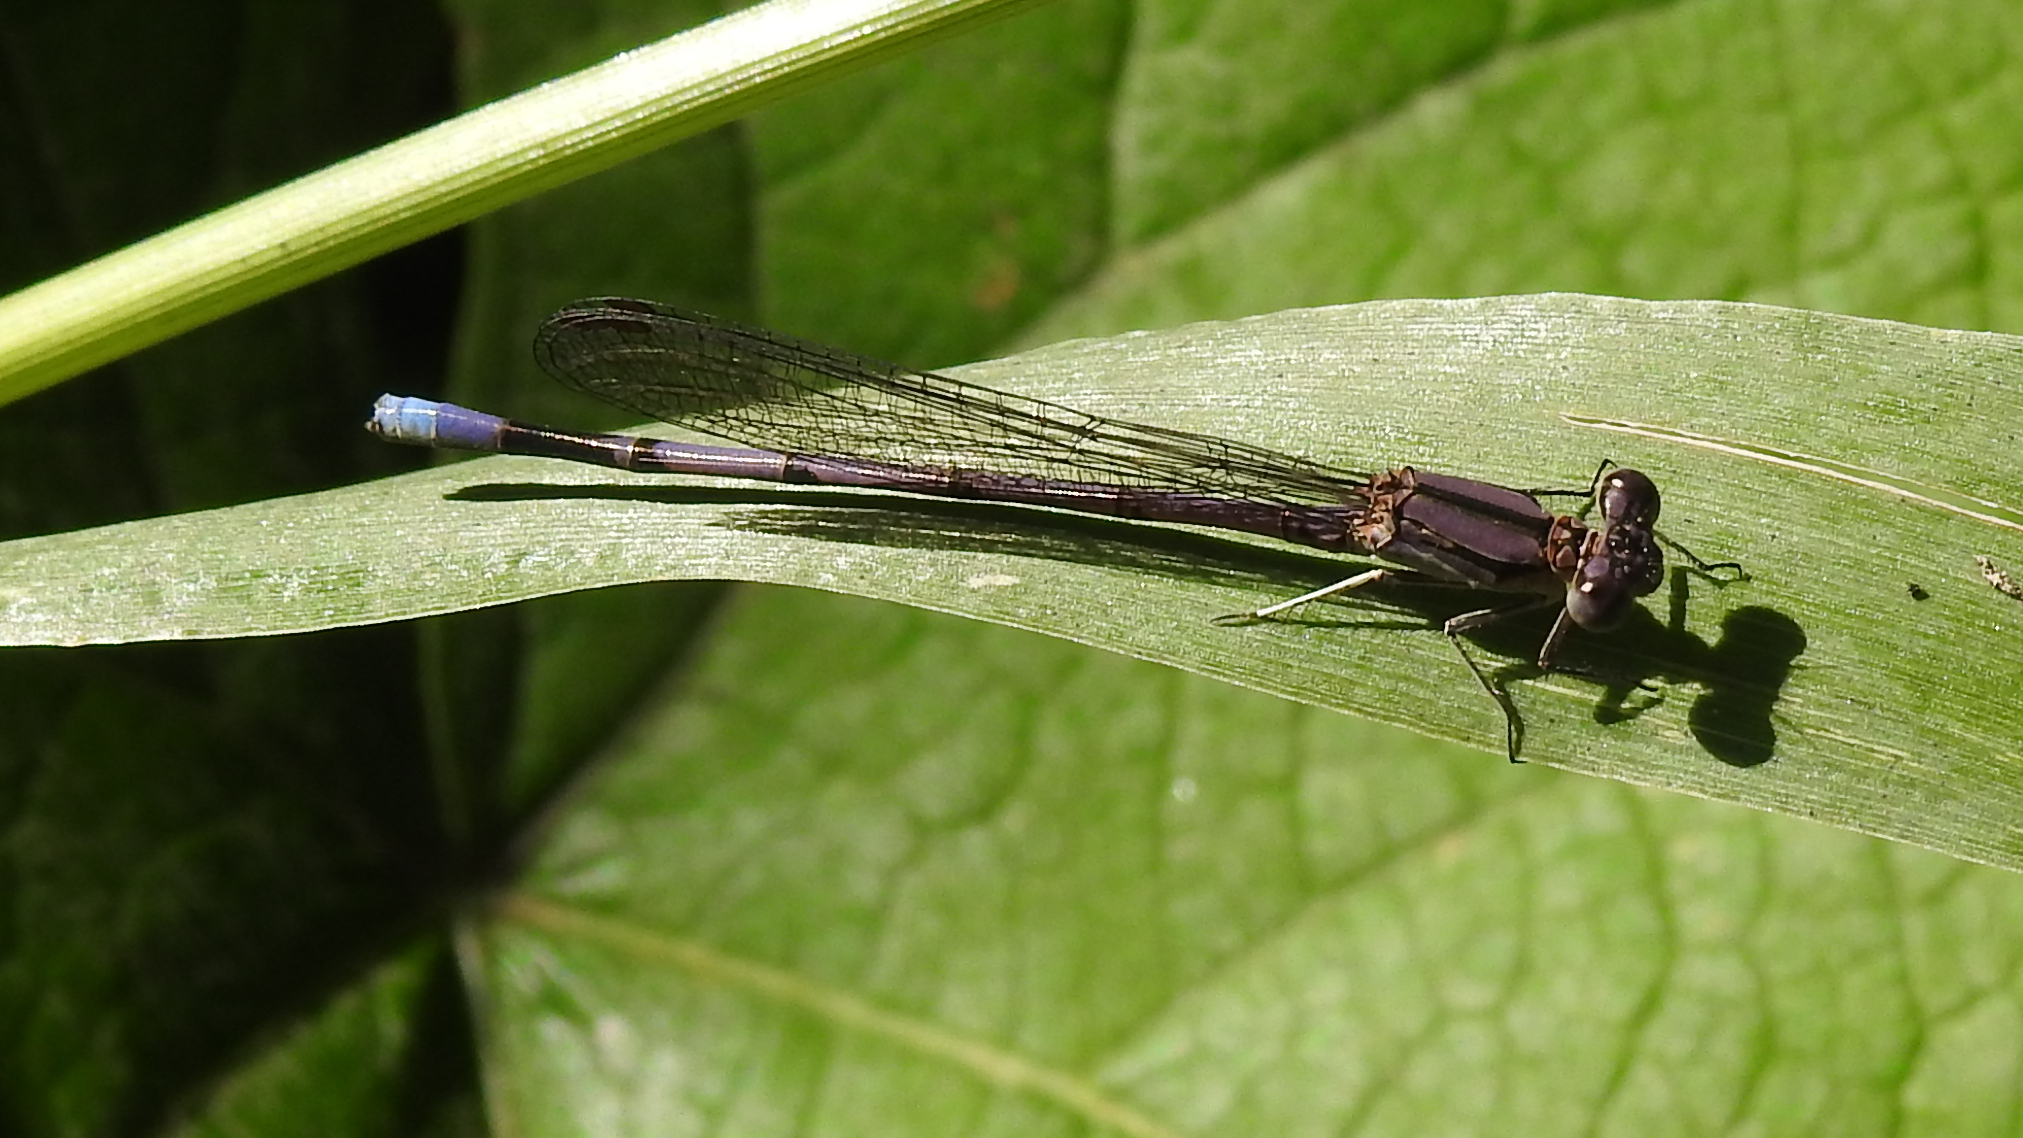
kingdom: Animalia
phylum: Arthropoda
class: Insecta
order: Odonata
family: Coenagrionidae
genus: Argia
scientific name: Argia fumipennis
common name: Variable dancer
